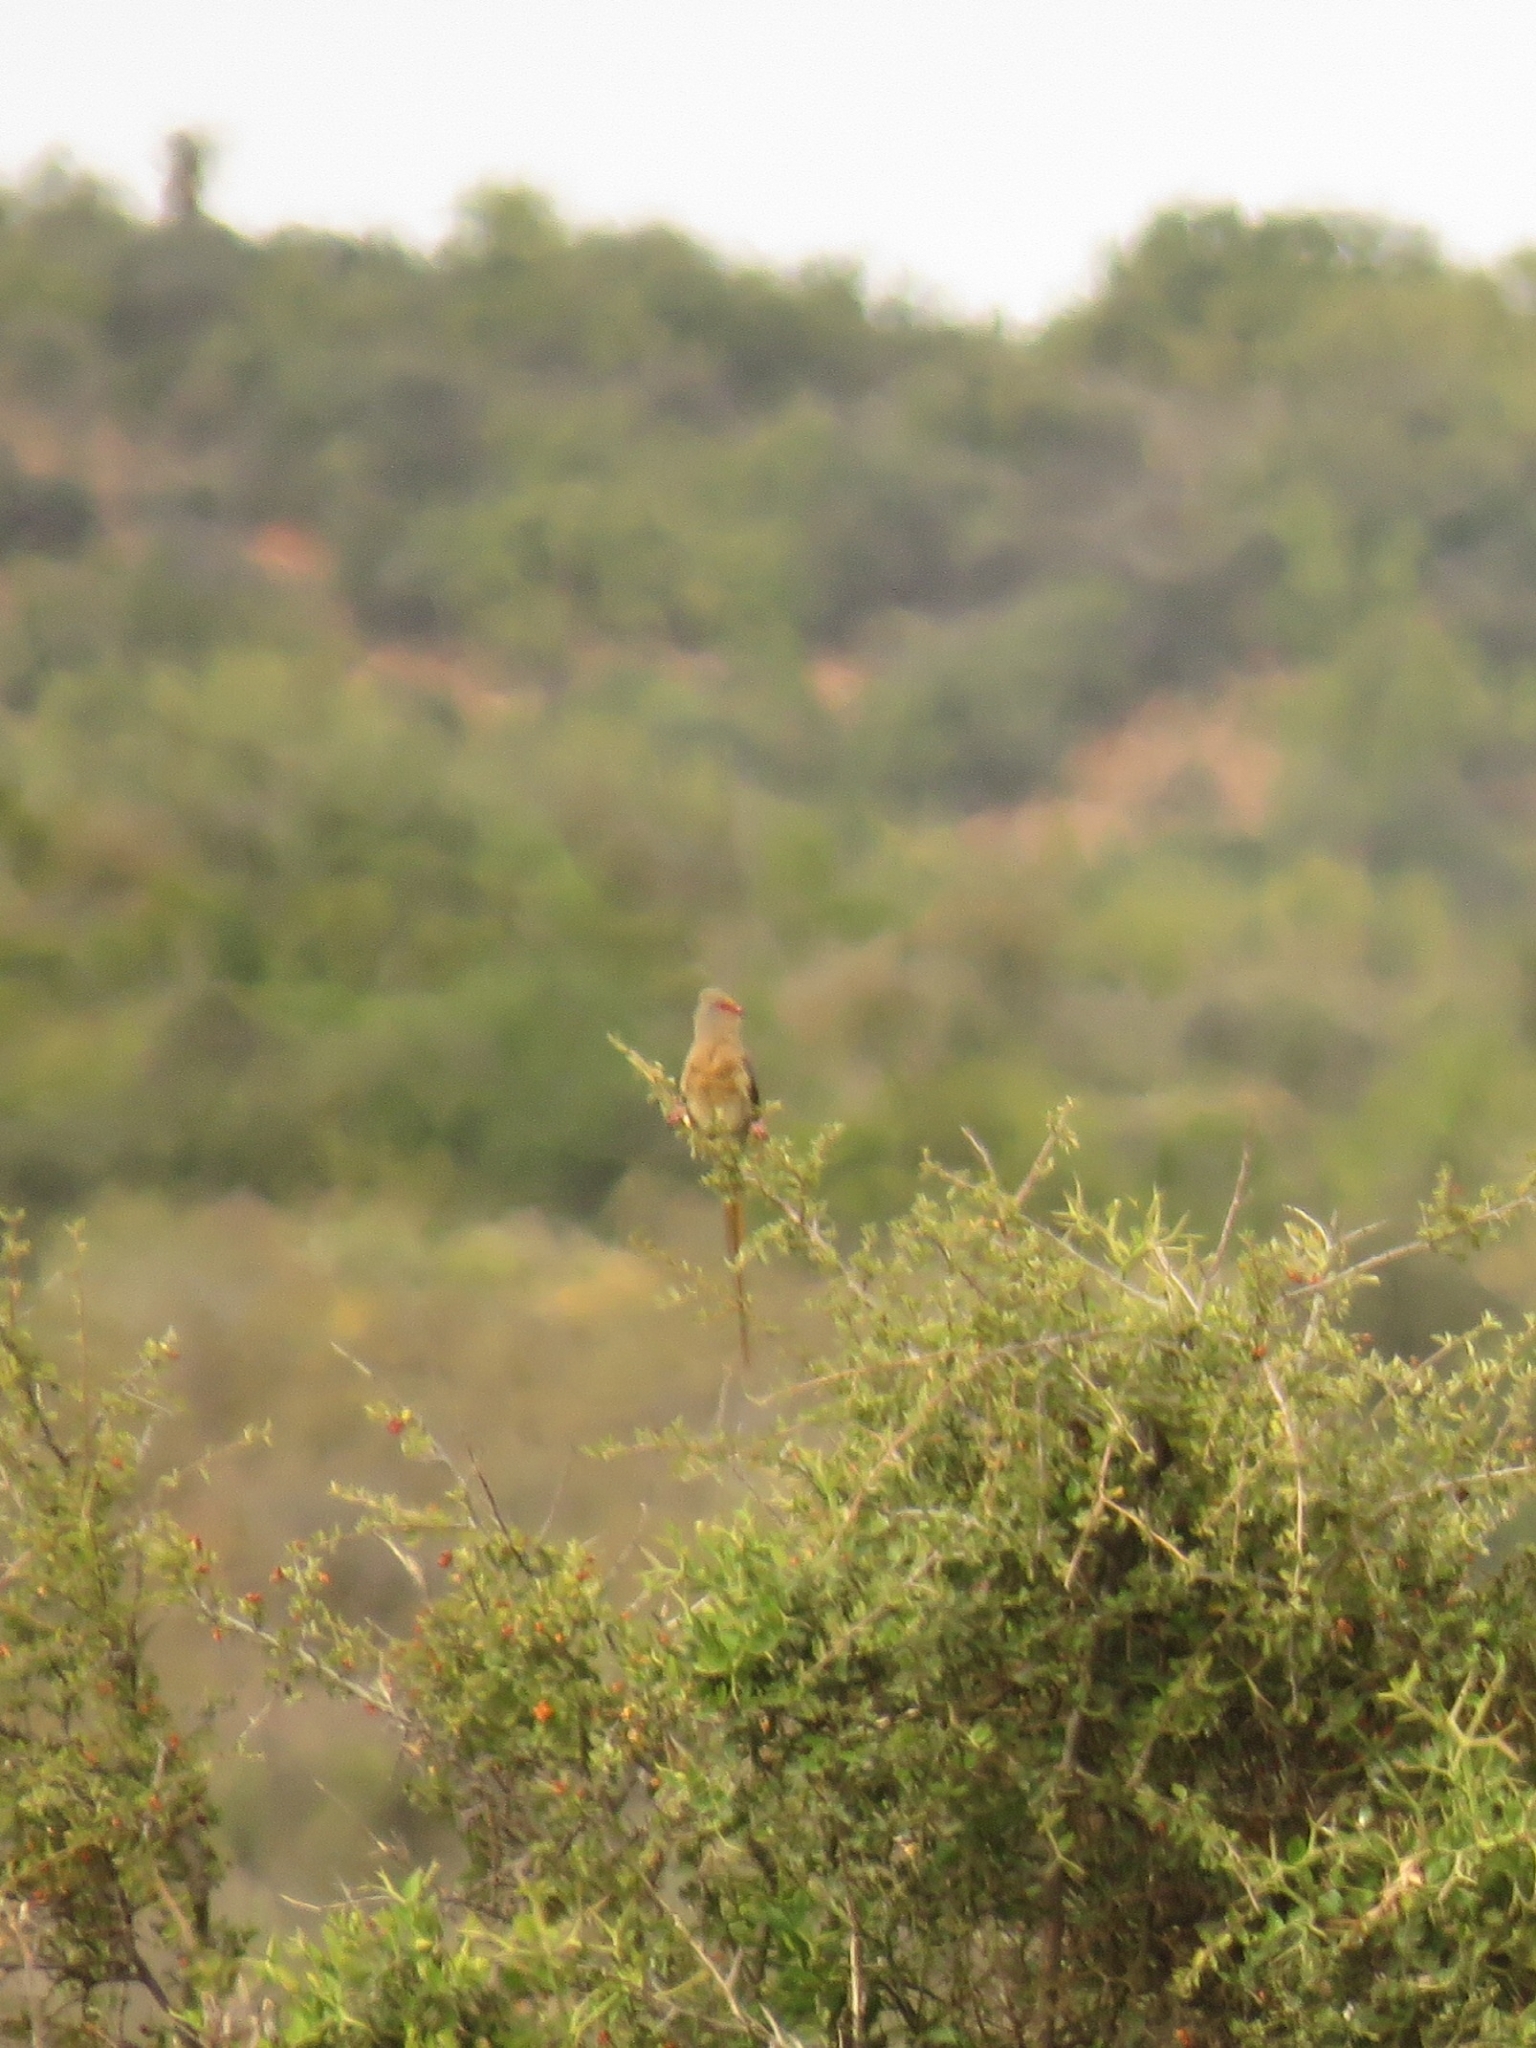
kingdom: Animalia
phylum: Chordata
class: Aves
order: Coliiformes
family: Coliidae
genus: Urocolius
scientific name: Urocolius indicus
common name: Red-faced mousebird
